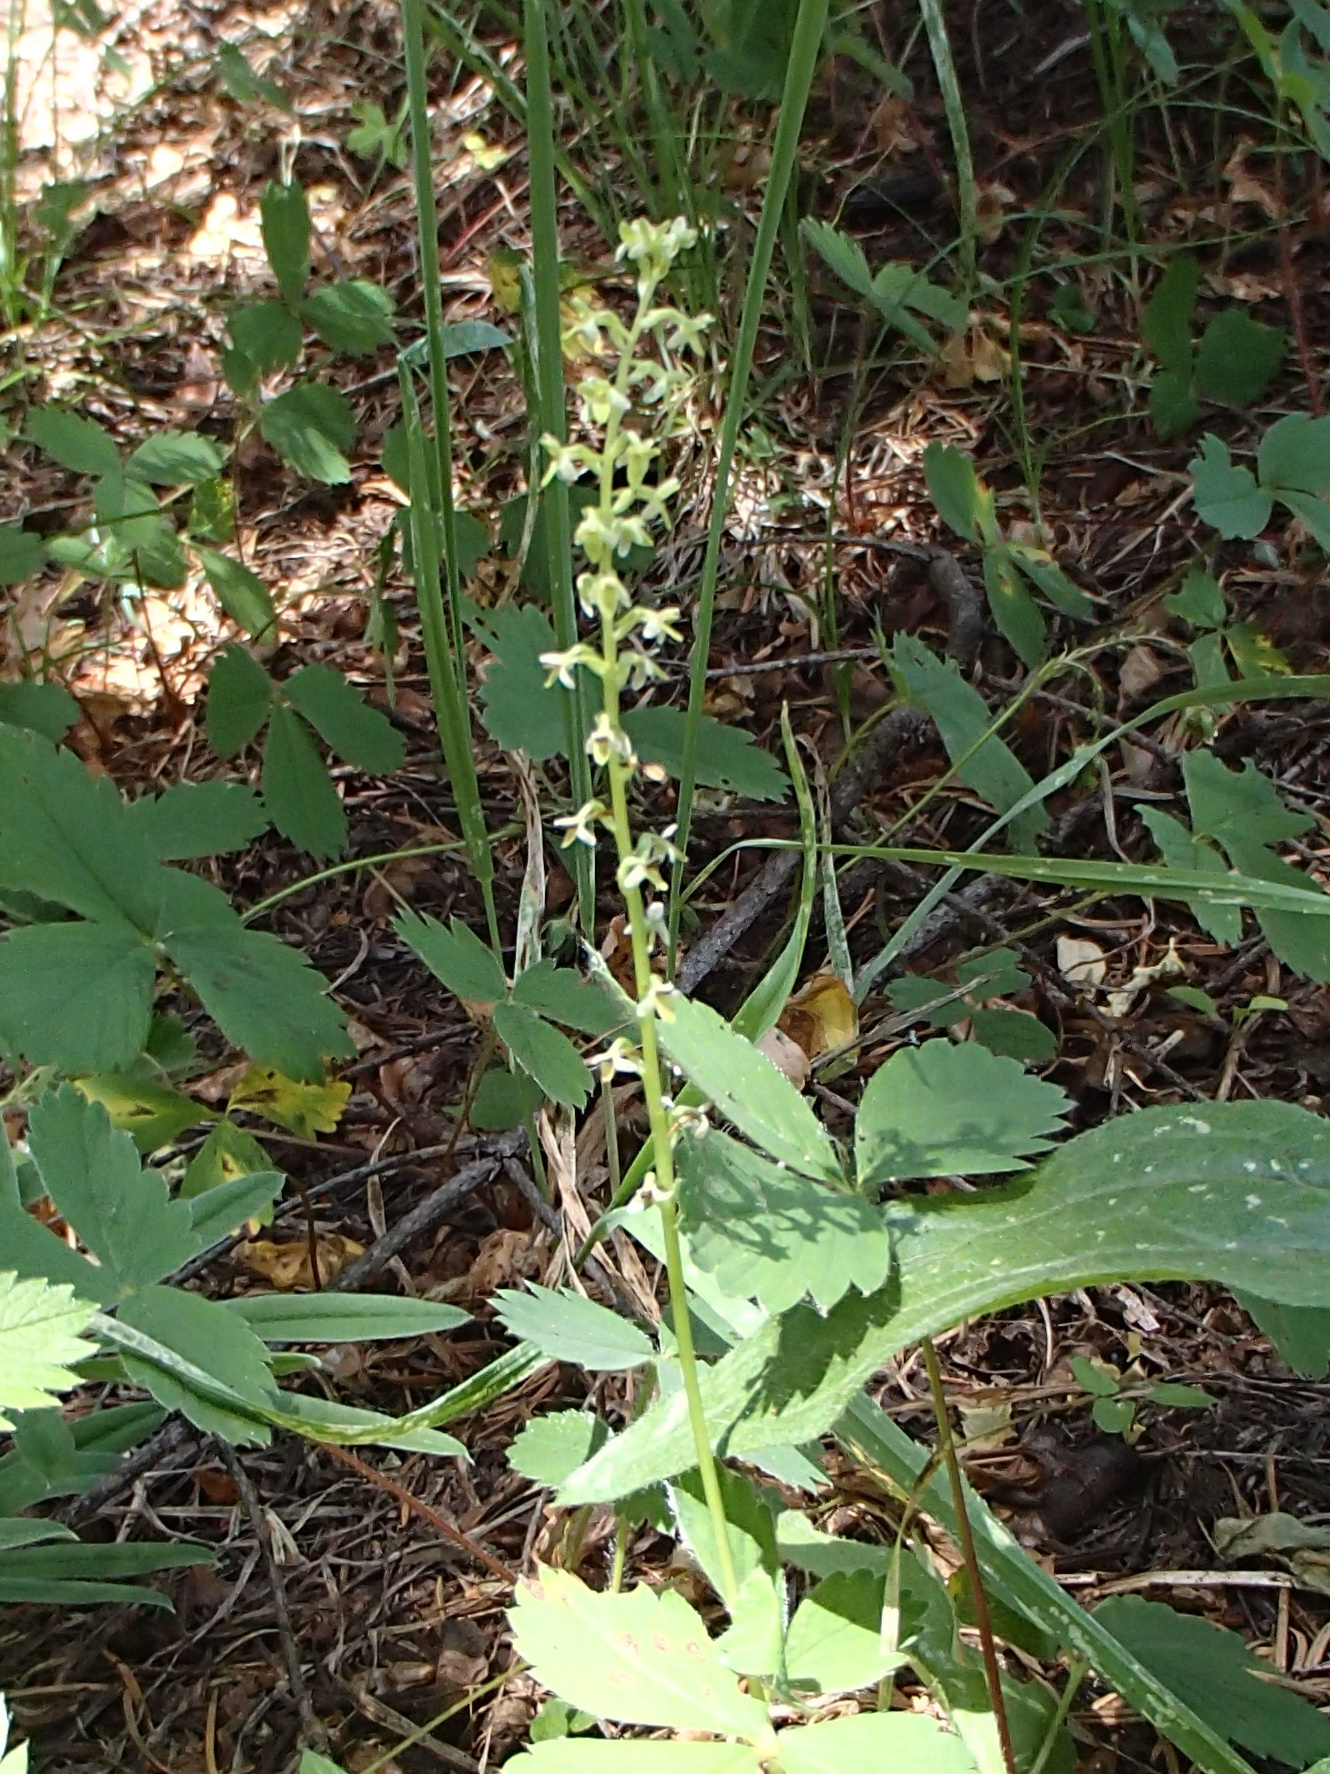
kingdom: Plantae
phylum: Tracheophyta
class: Liliopsida
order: Asparagales
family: Orchidaceae
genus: Platanthera
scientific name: Platanthera unalascensis
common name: Alaska bog orchid
